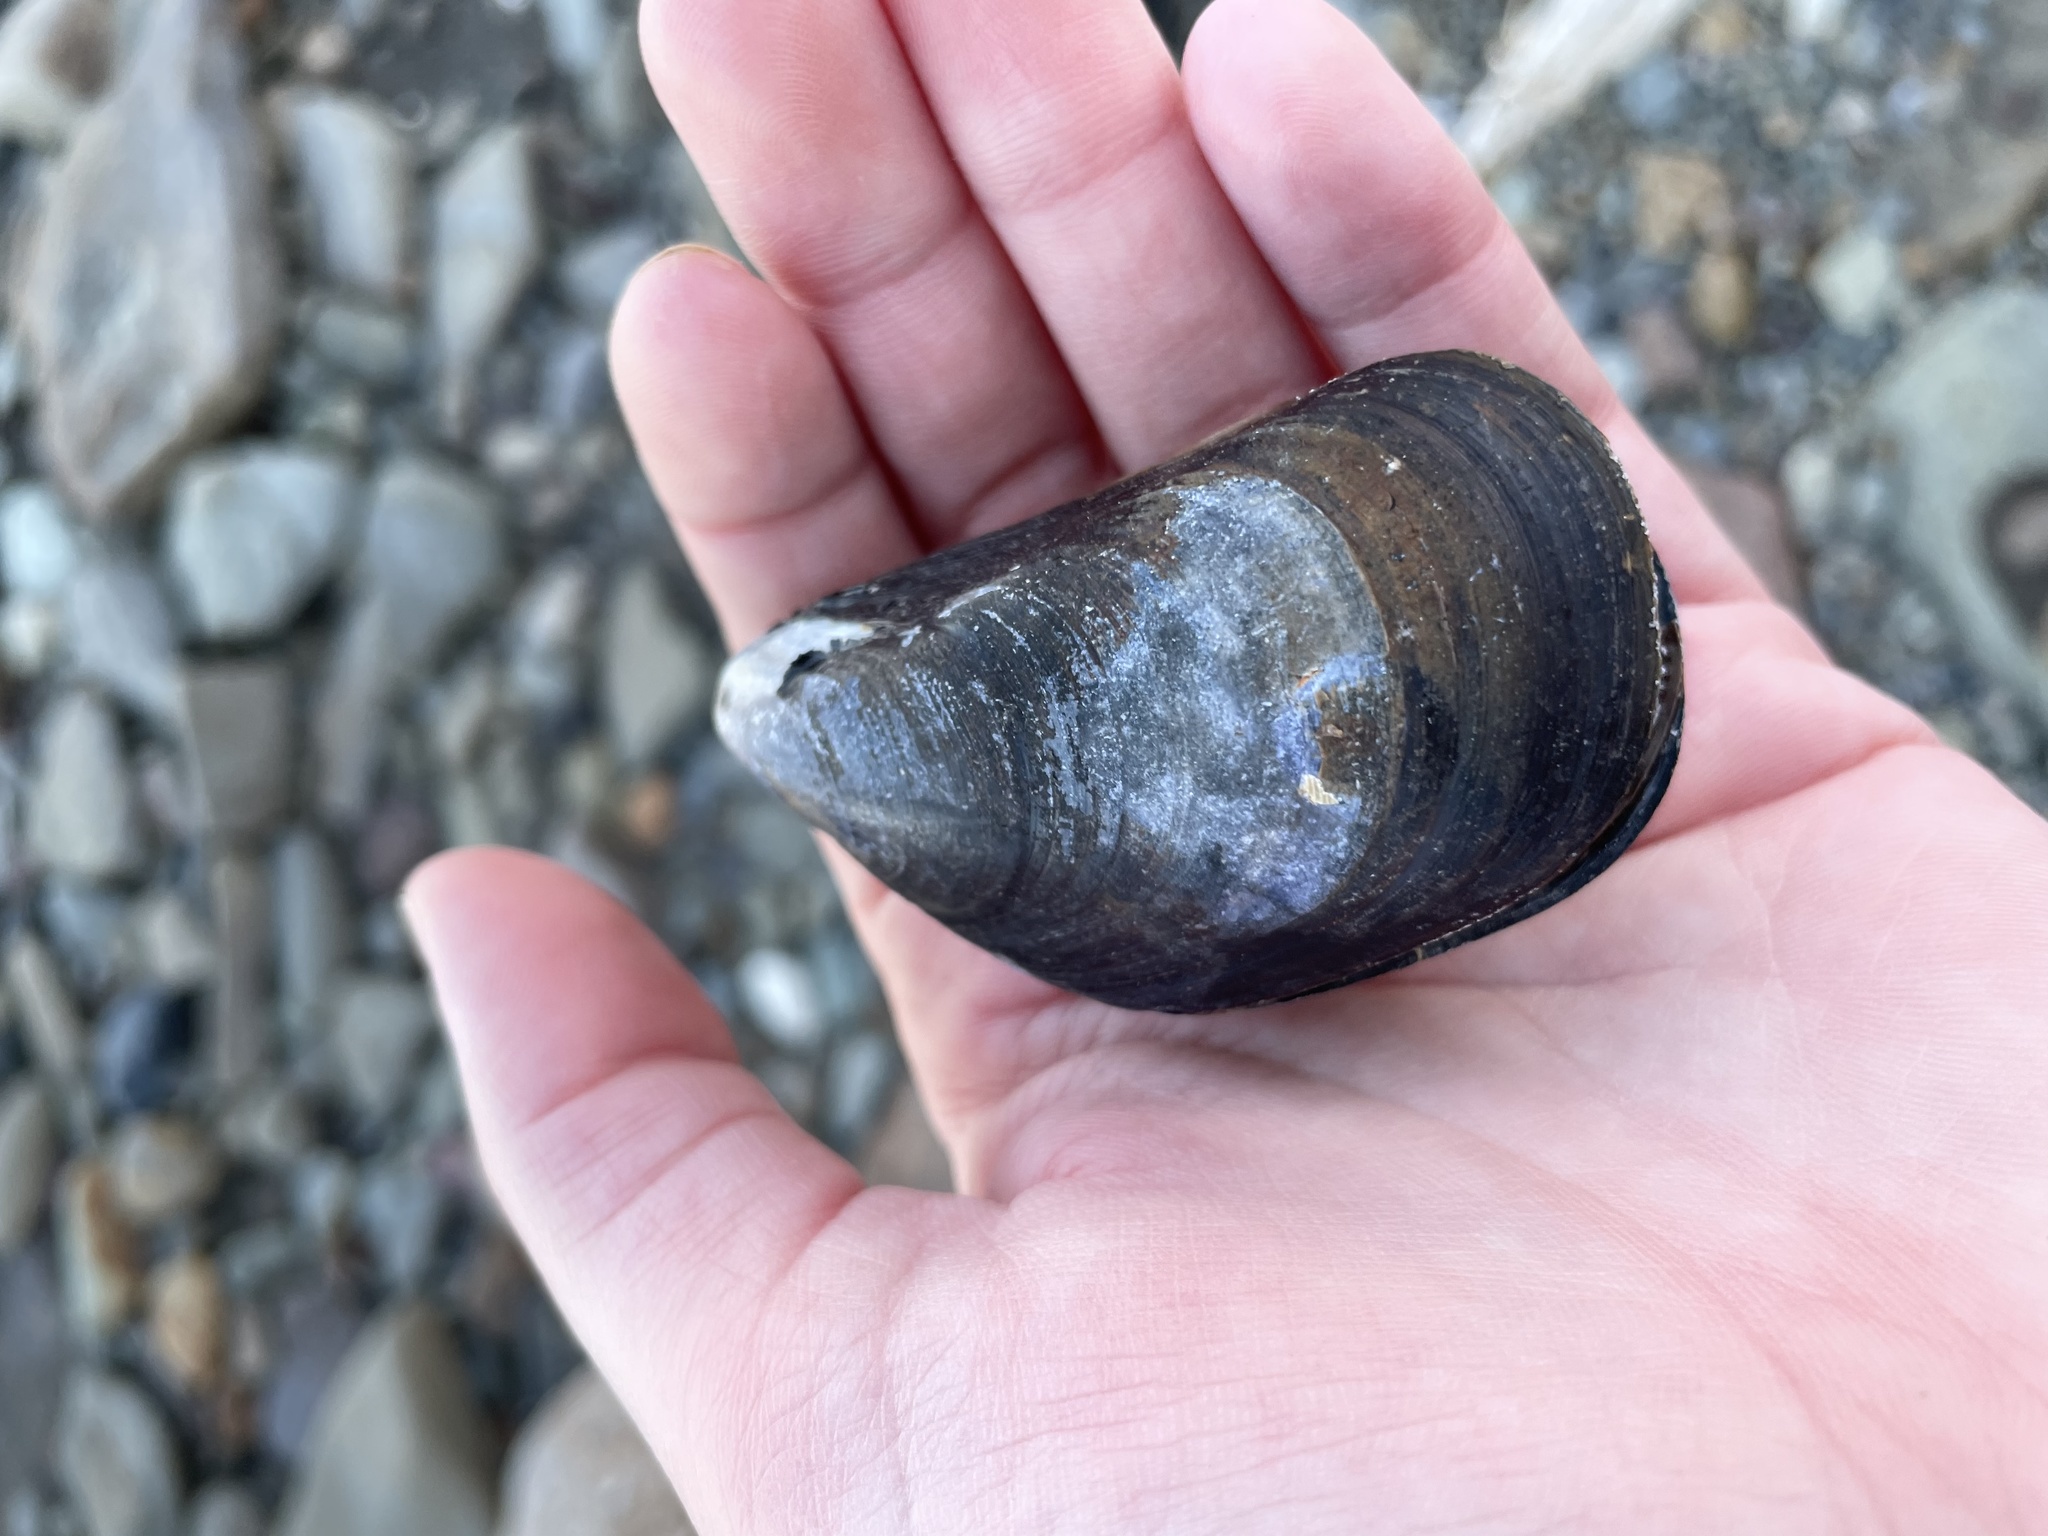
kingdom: Animalia
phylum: Mollusca
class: Bivalvia
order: Mytilida
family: Mytilidae
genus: Mytilus
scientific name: Mytilus edulis
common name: Blue mussel
